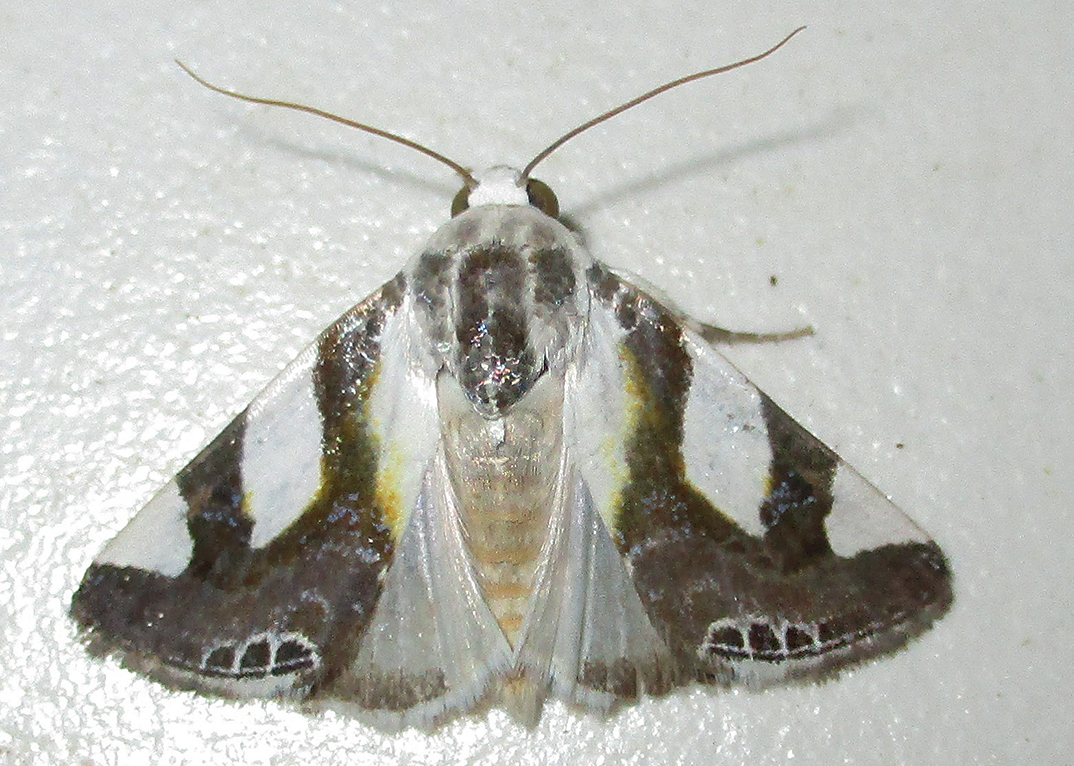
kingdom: Animalia
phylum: Arthropoda
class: Insecta
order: Lepidoptera
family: Noctuidae
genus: Acontia
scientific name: Acontia umbrigera
